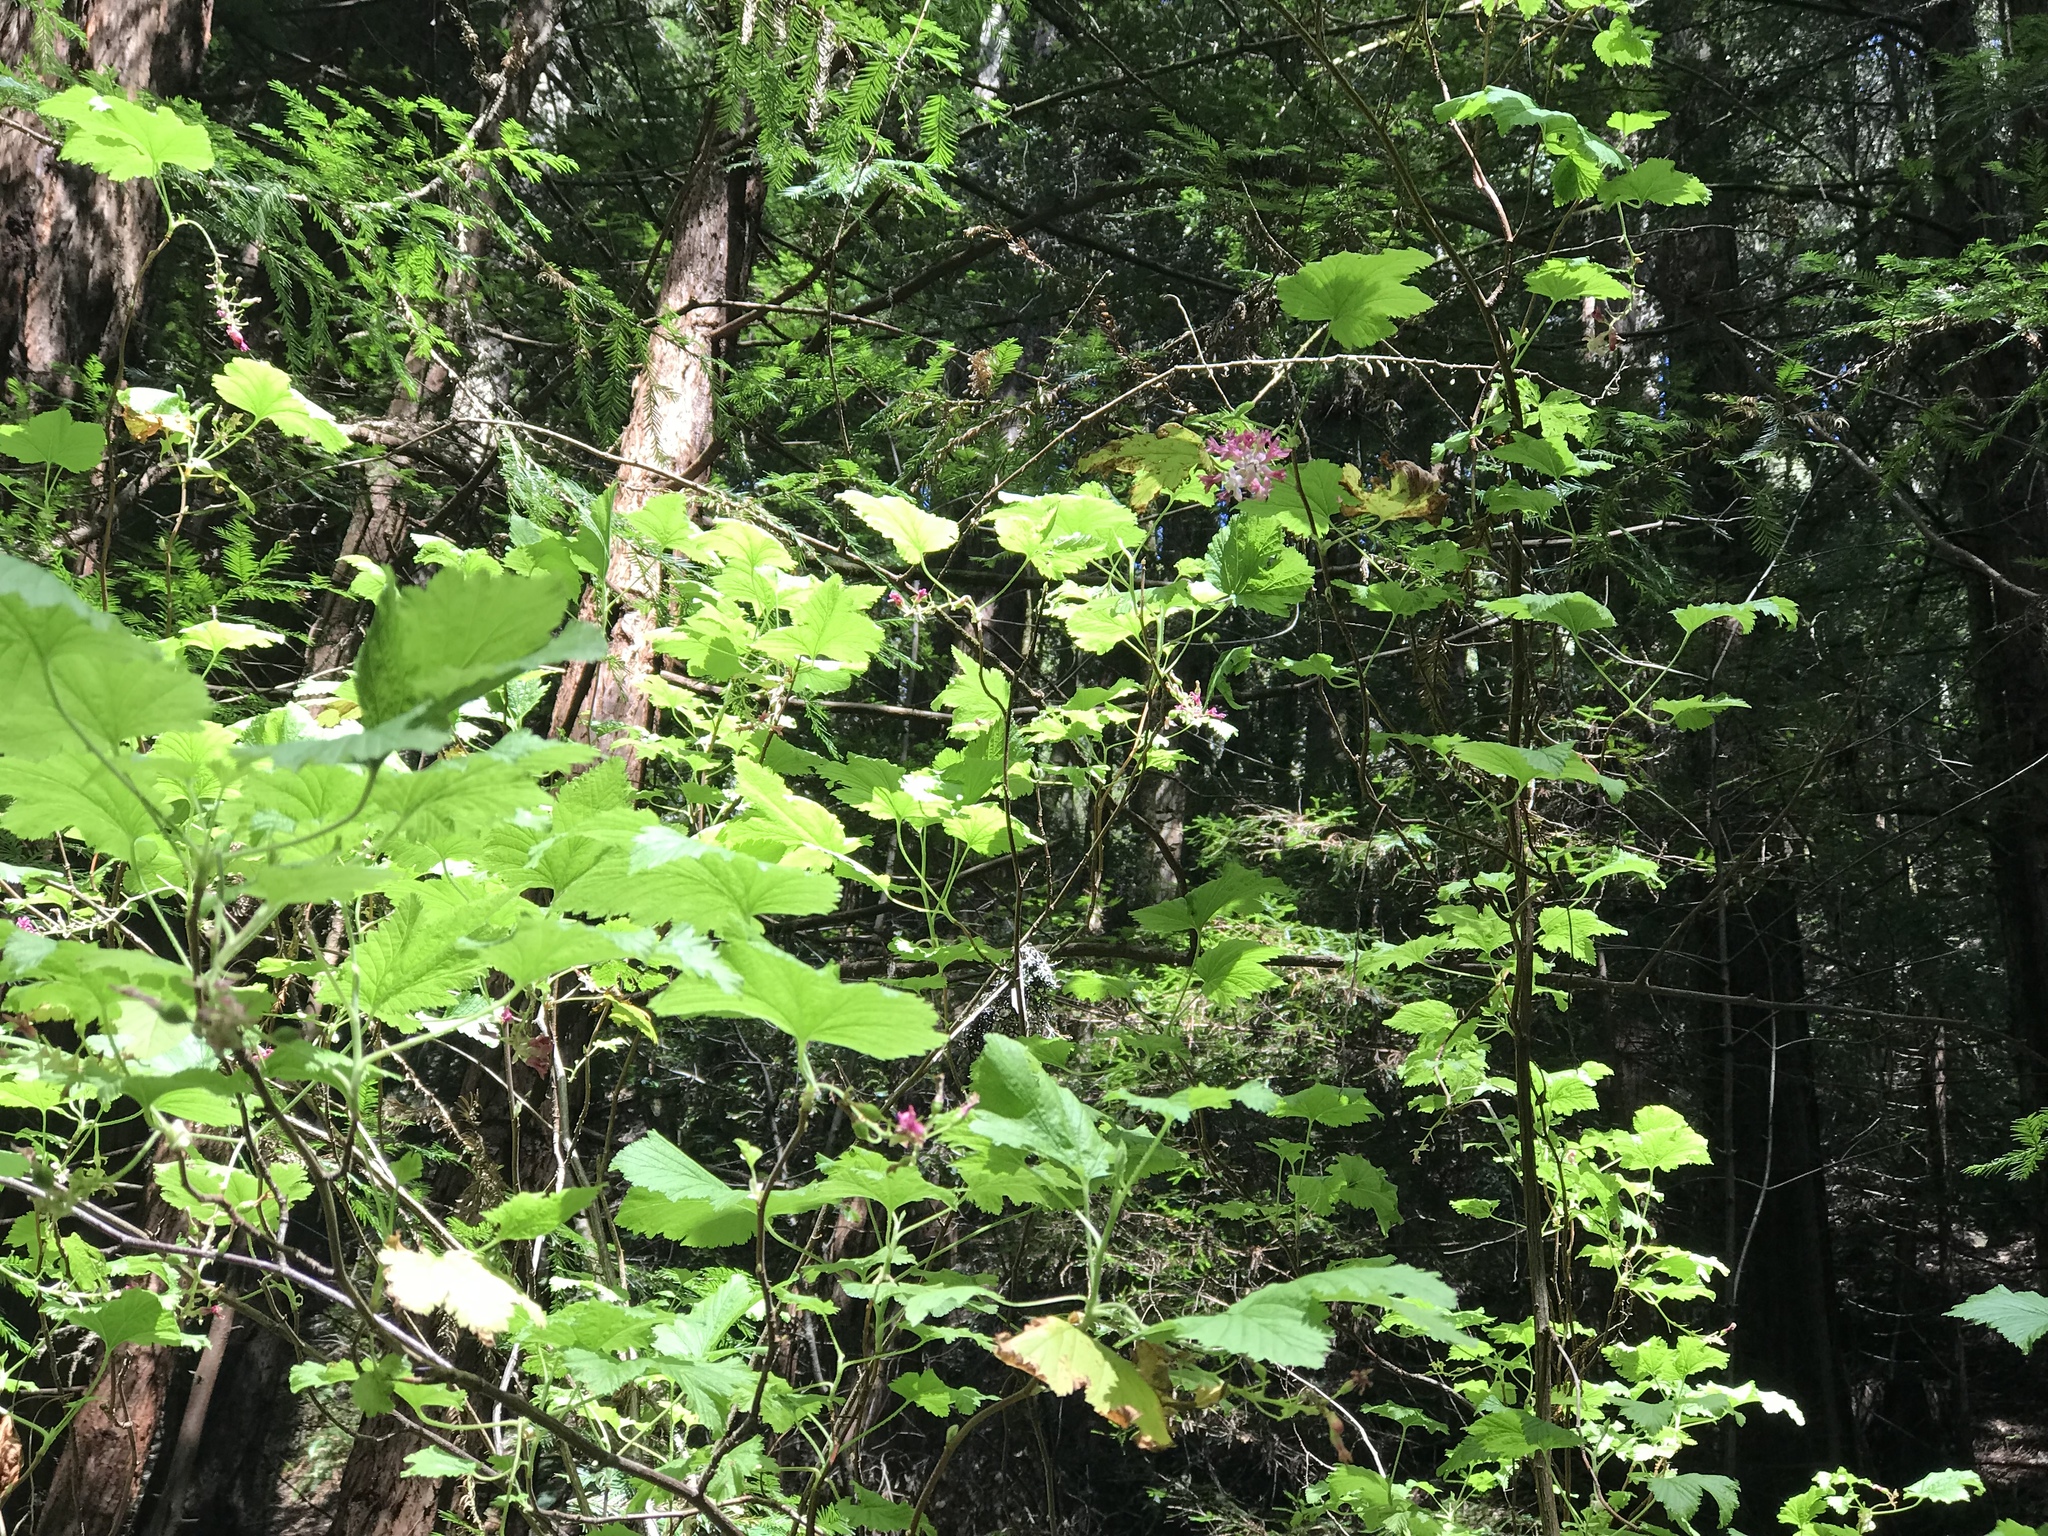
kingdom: Plantae
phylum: Tracheophyta
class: Magnoliopsida
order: Saxifragales
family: Grossulariaceae
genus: Ribes
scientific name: Ribes sanguineum
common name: Flowering currant
